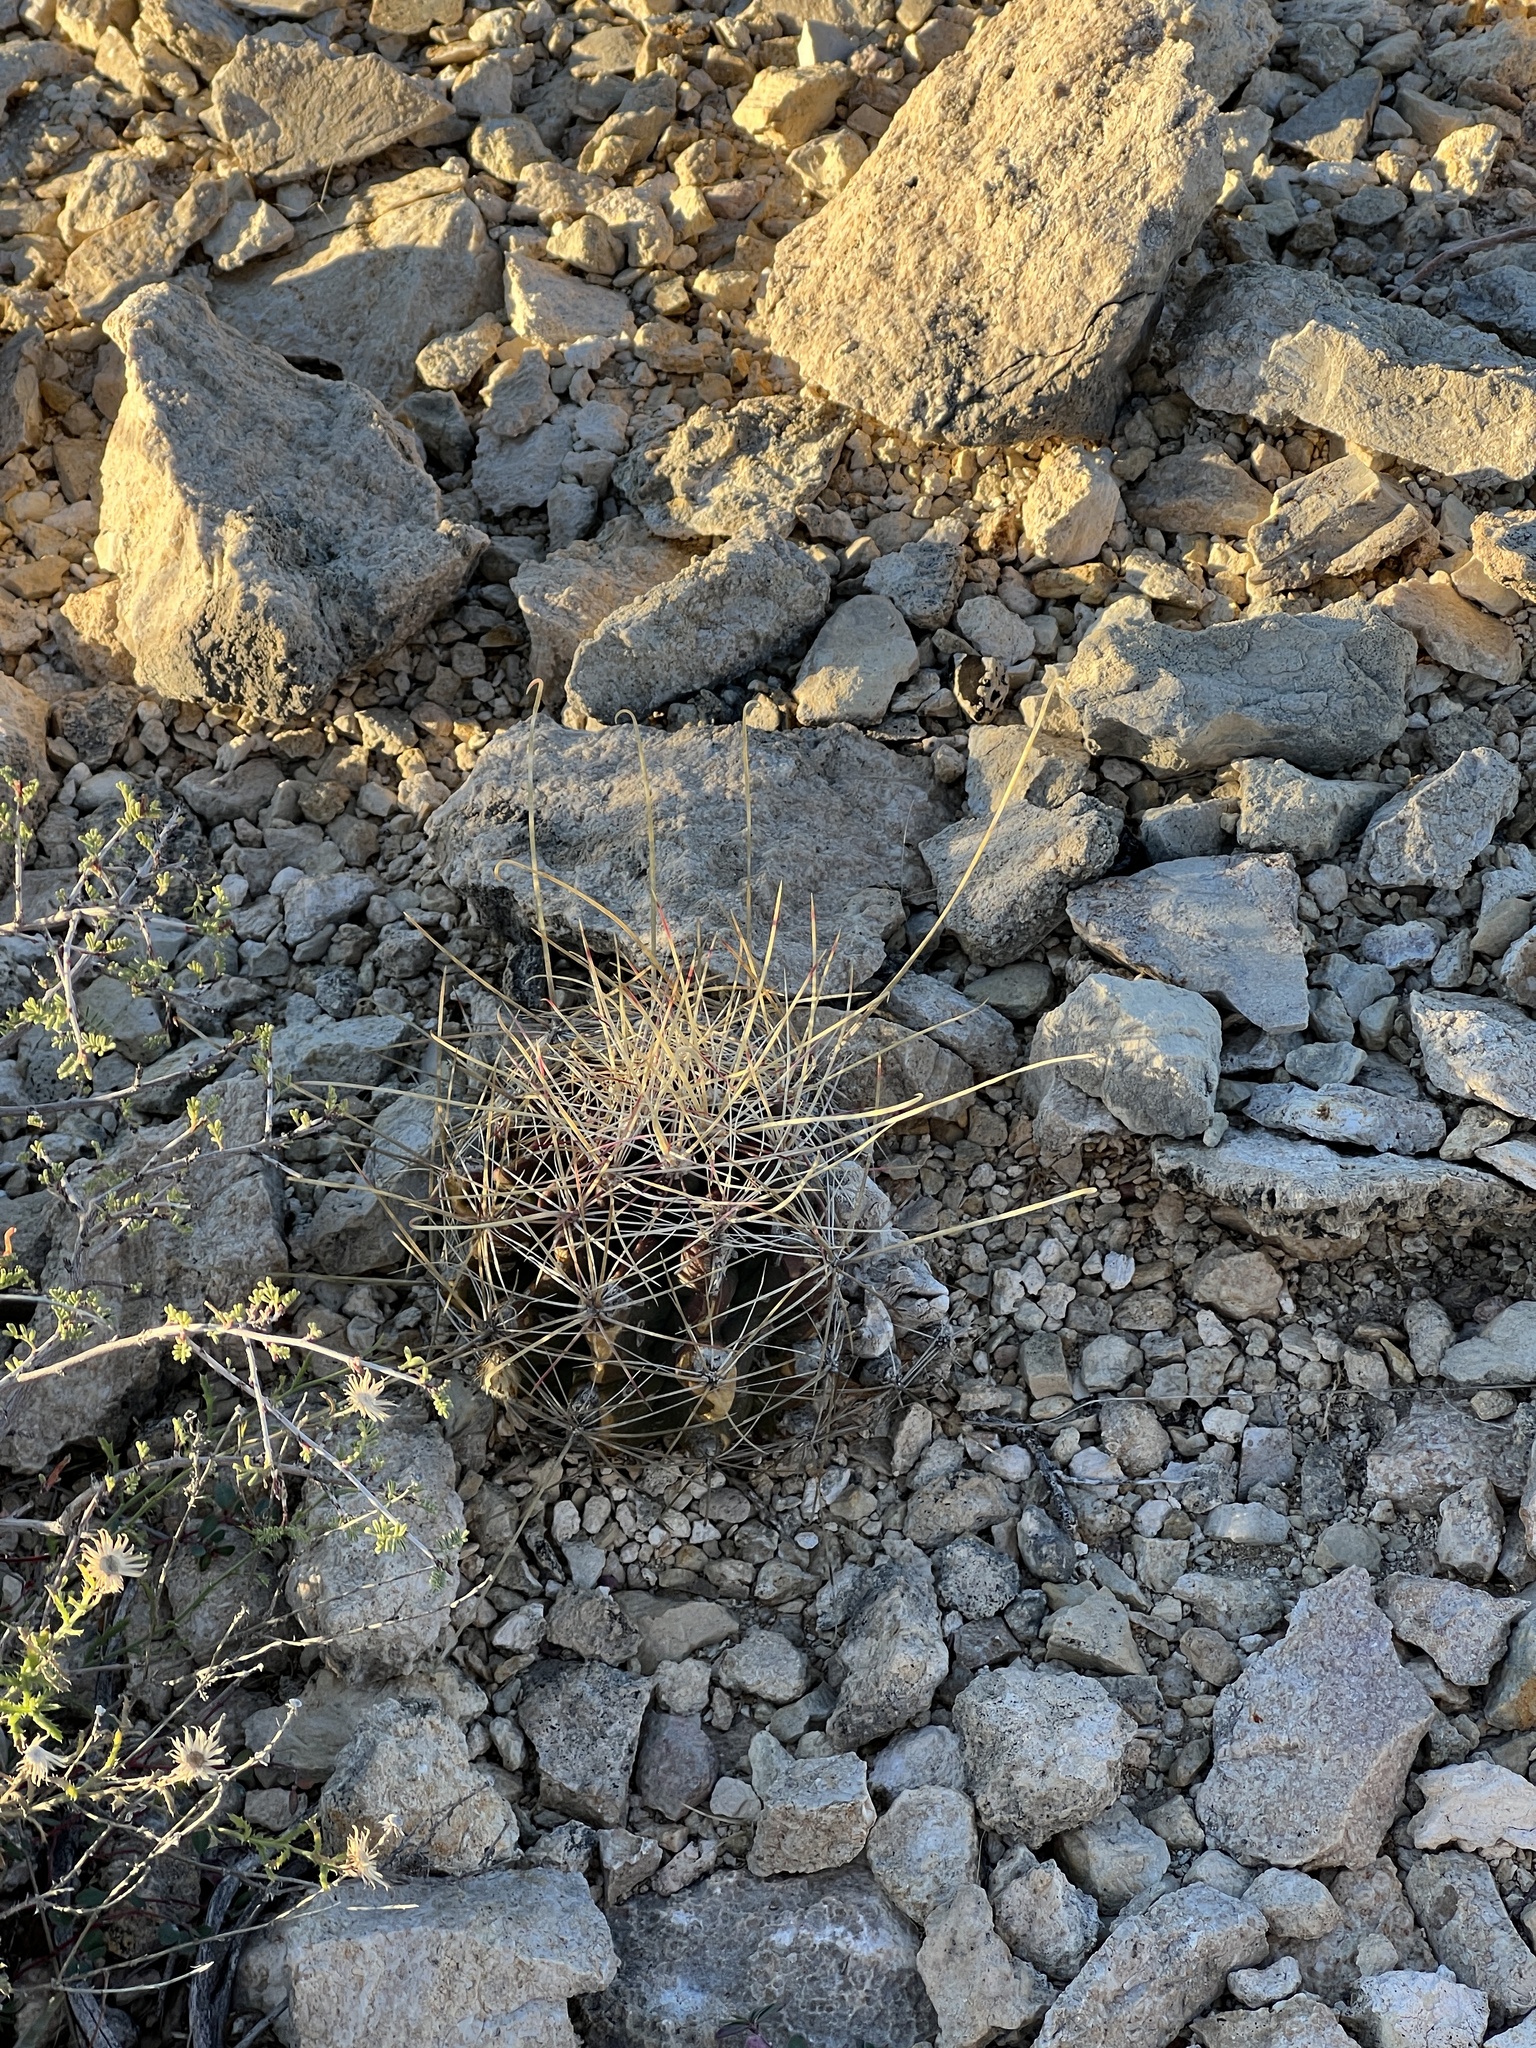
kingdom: Plantae
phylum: Tracheophyta
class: Magnoliopsida
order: Caryophyllales
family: Cactaceae
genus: Bisnaga
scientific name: Bisnaga hamatacantha
